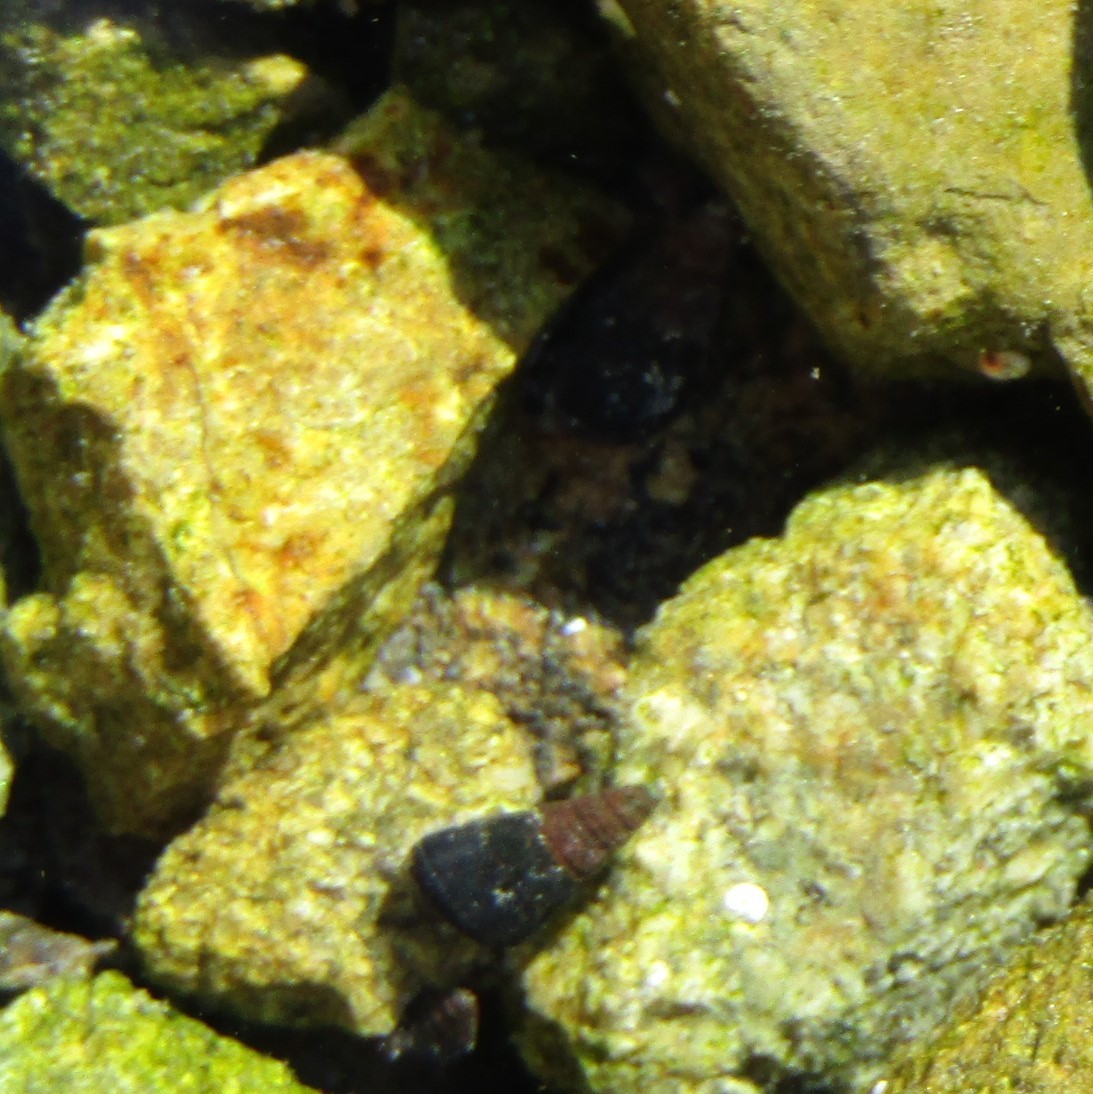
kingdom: Animalia
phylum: Mollusca
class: Gastropoda
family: Batillariidae
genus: Zeacumantus
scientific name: Zeacumantus subcarinatus
